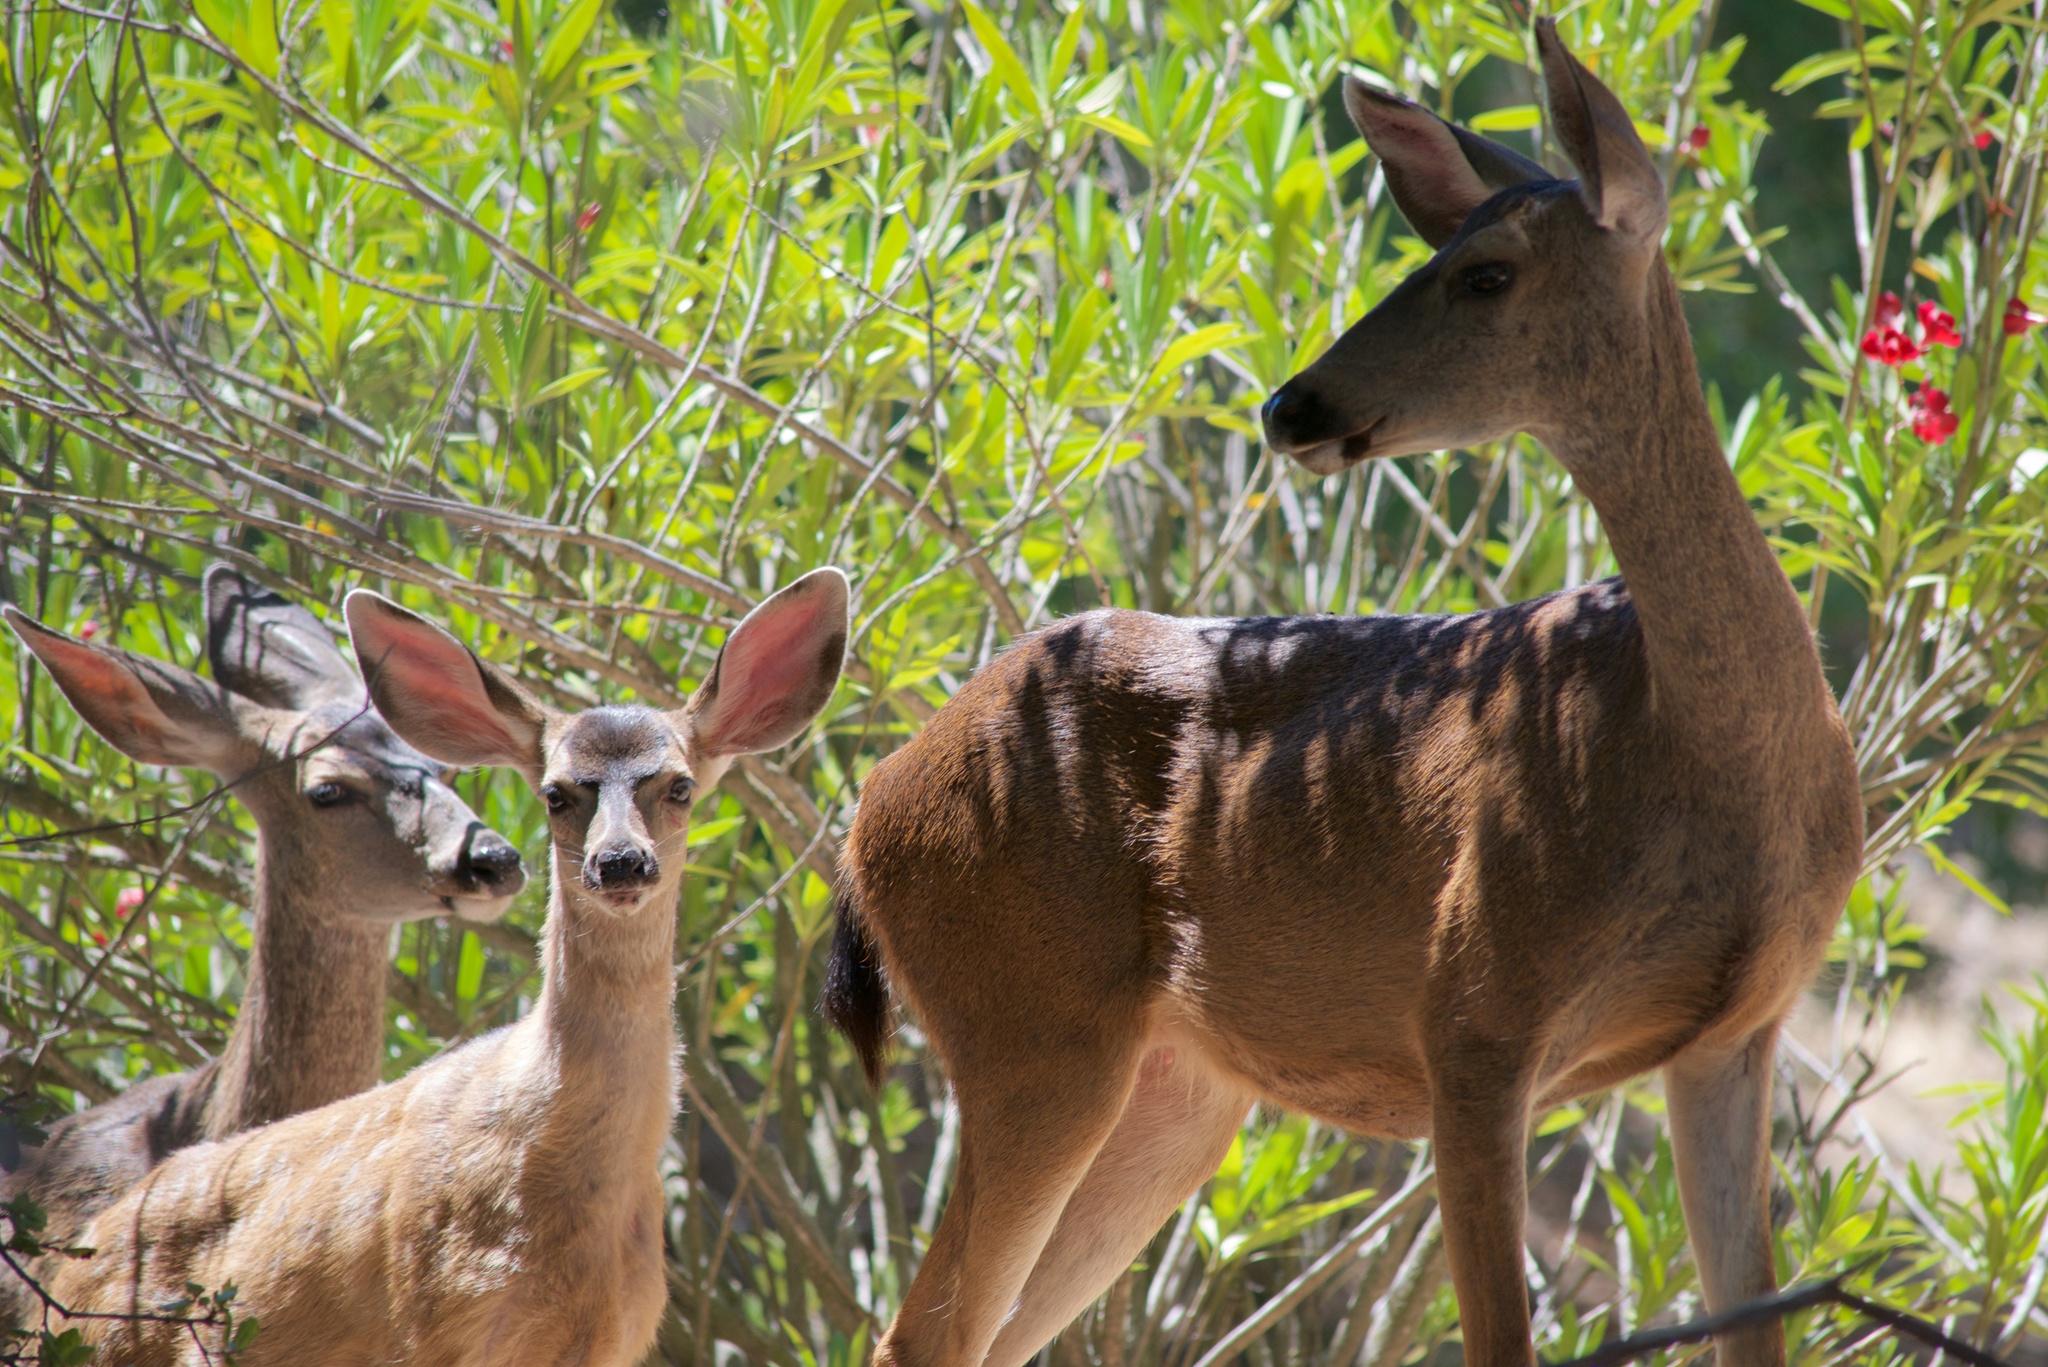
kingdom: Animalia
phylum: Chordata
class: Mammalia
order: Artiodactyla
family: Cervidae
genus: Odocoileus
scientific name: Odocoileus hemionus
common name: Mule deer
